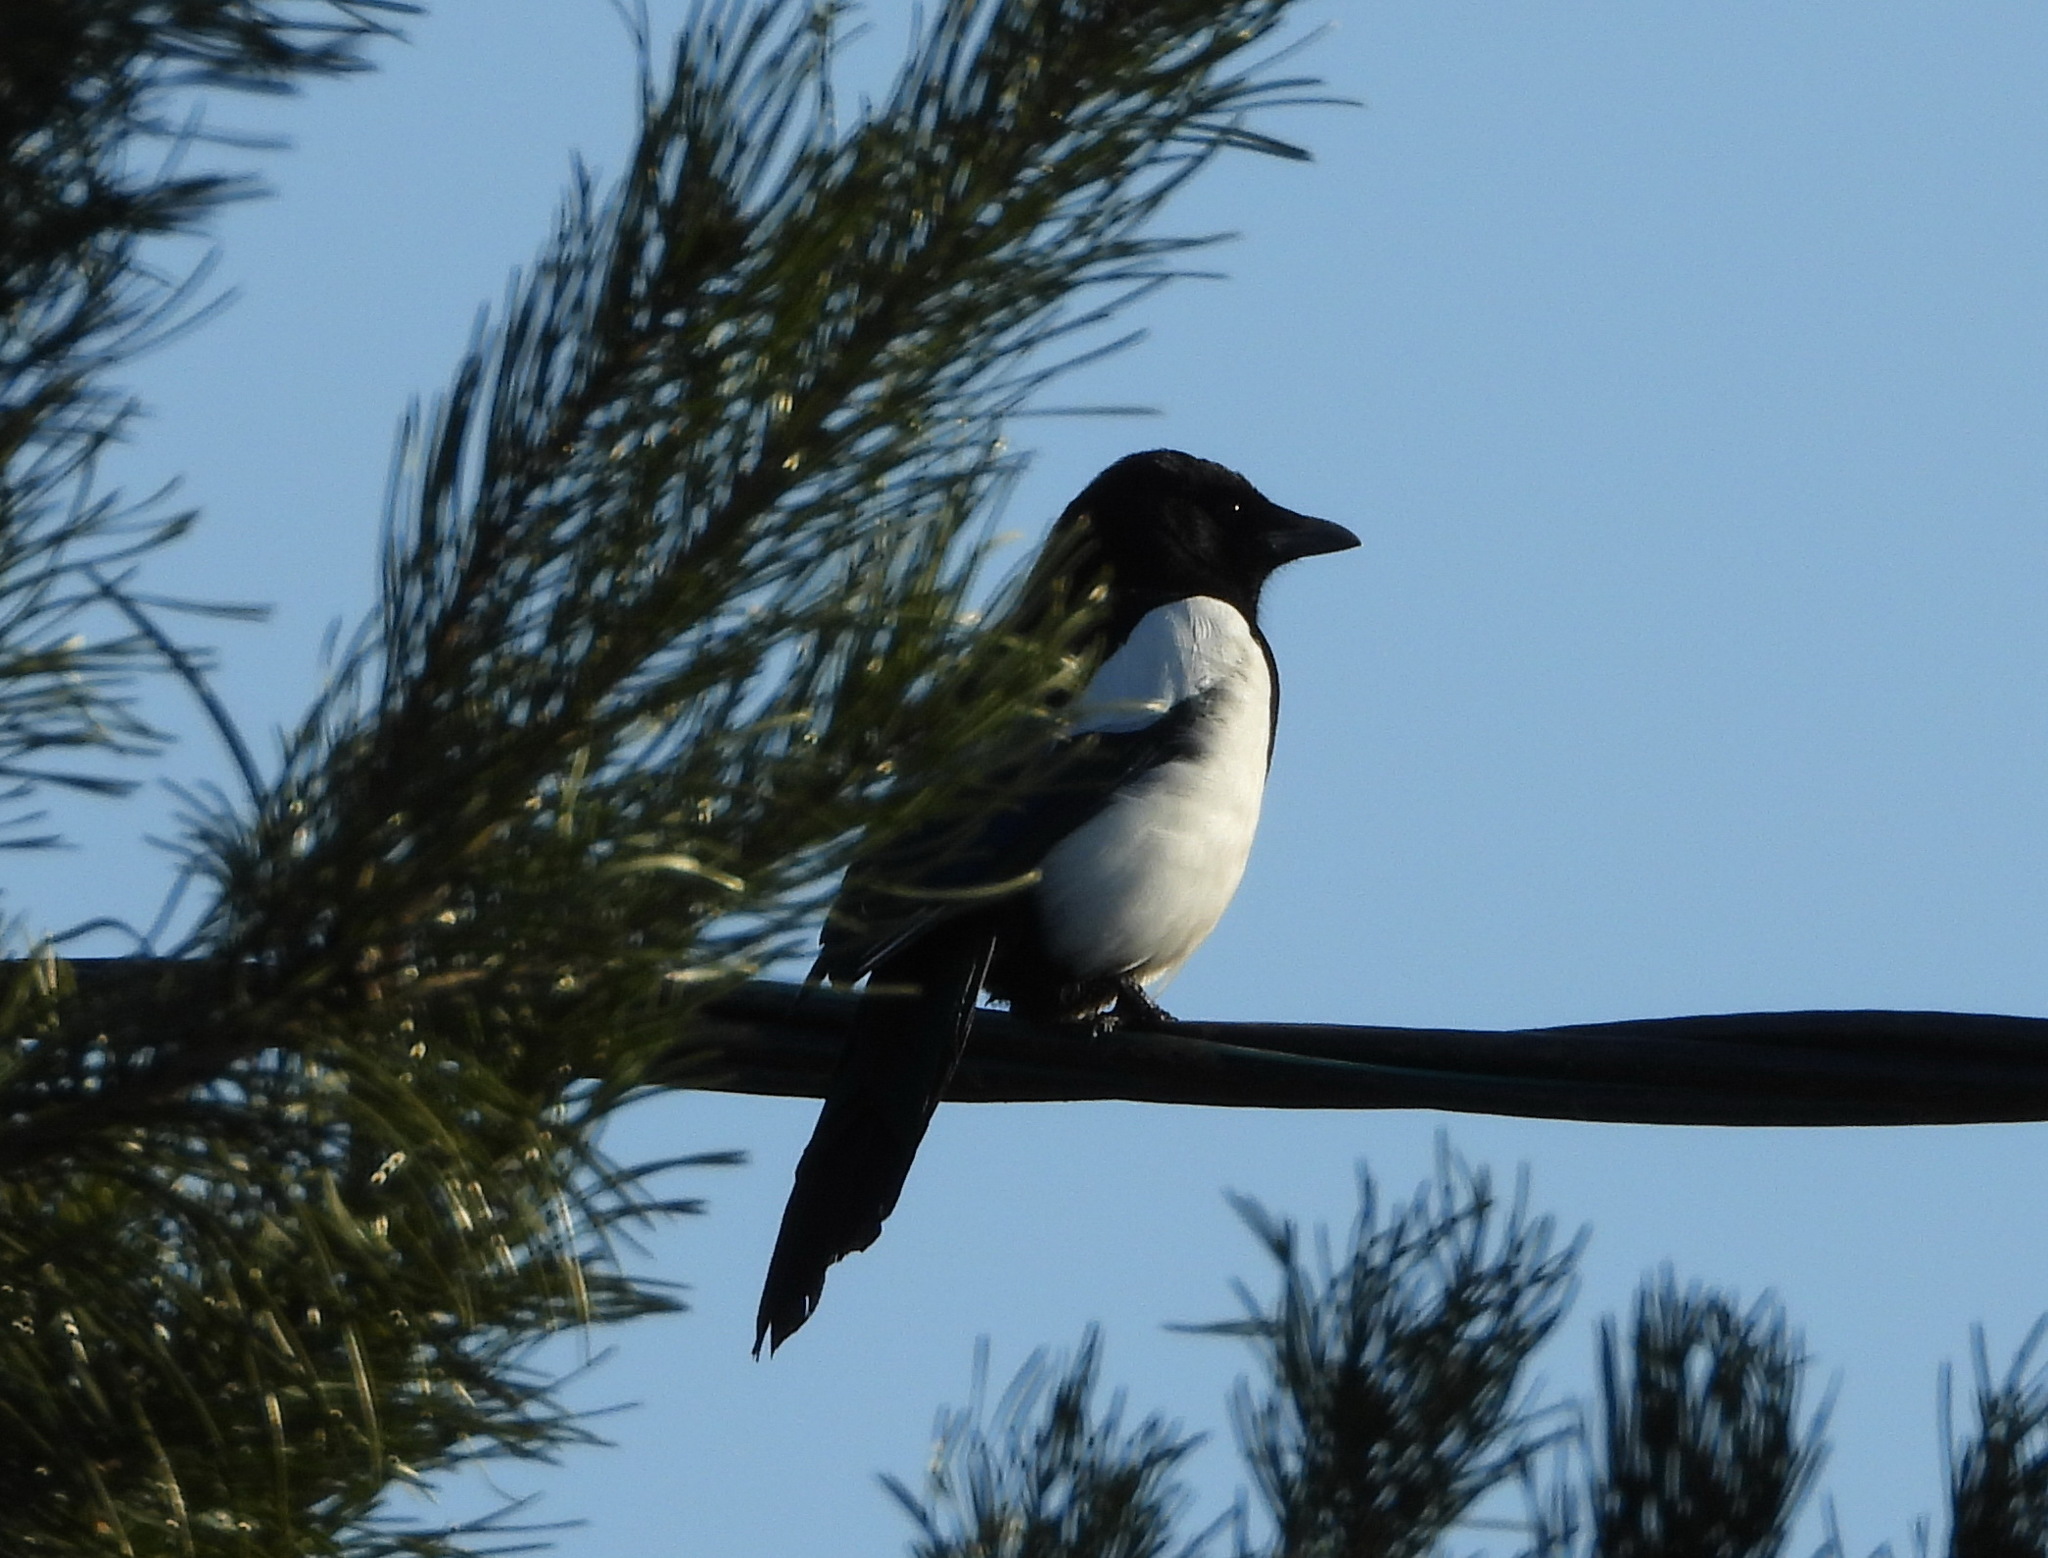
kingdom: Animalia
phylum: Chordata
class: Aves
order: Passeriformes
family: Corvidae
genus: Pica
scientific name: Pica pica
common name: Eurasian magpie
